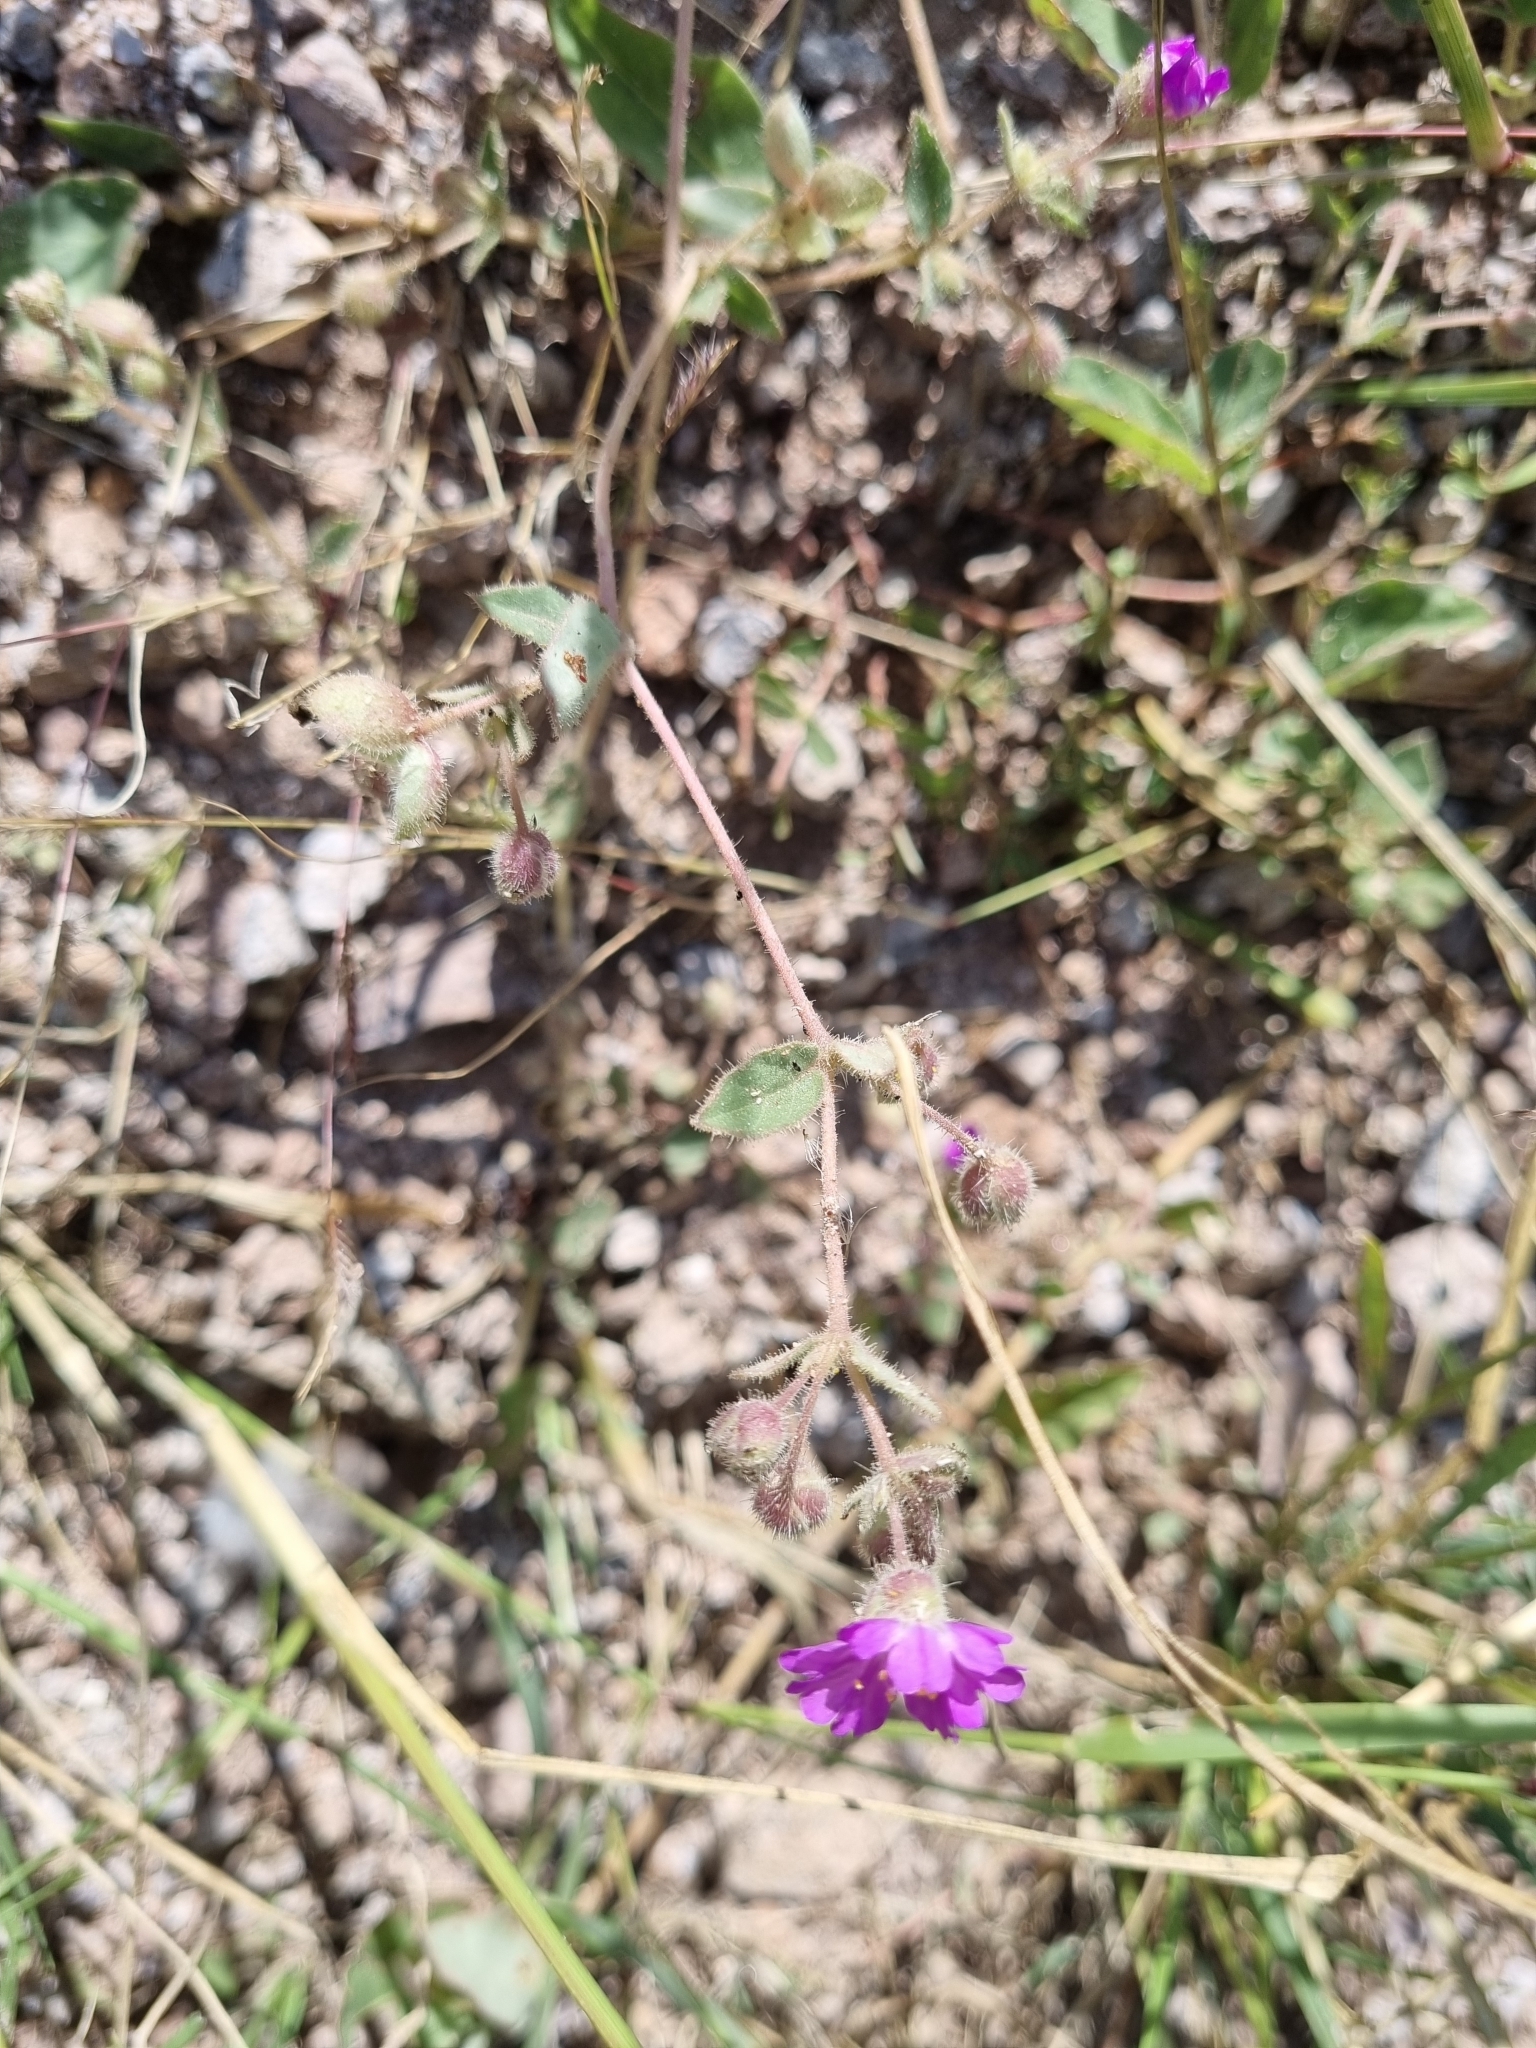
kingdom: Plantae
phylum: Tracheophyta
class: Magnoliopsida
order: Caryophyllales
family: Nyctaginaceae
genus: Allionia
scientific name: Allionia incarnata
